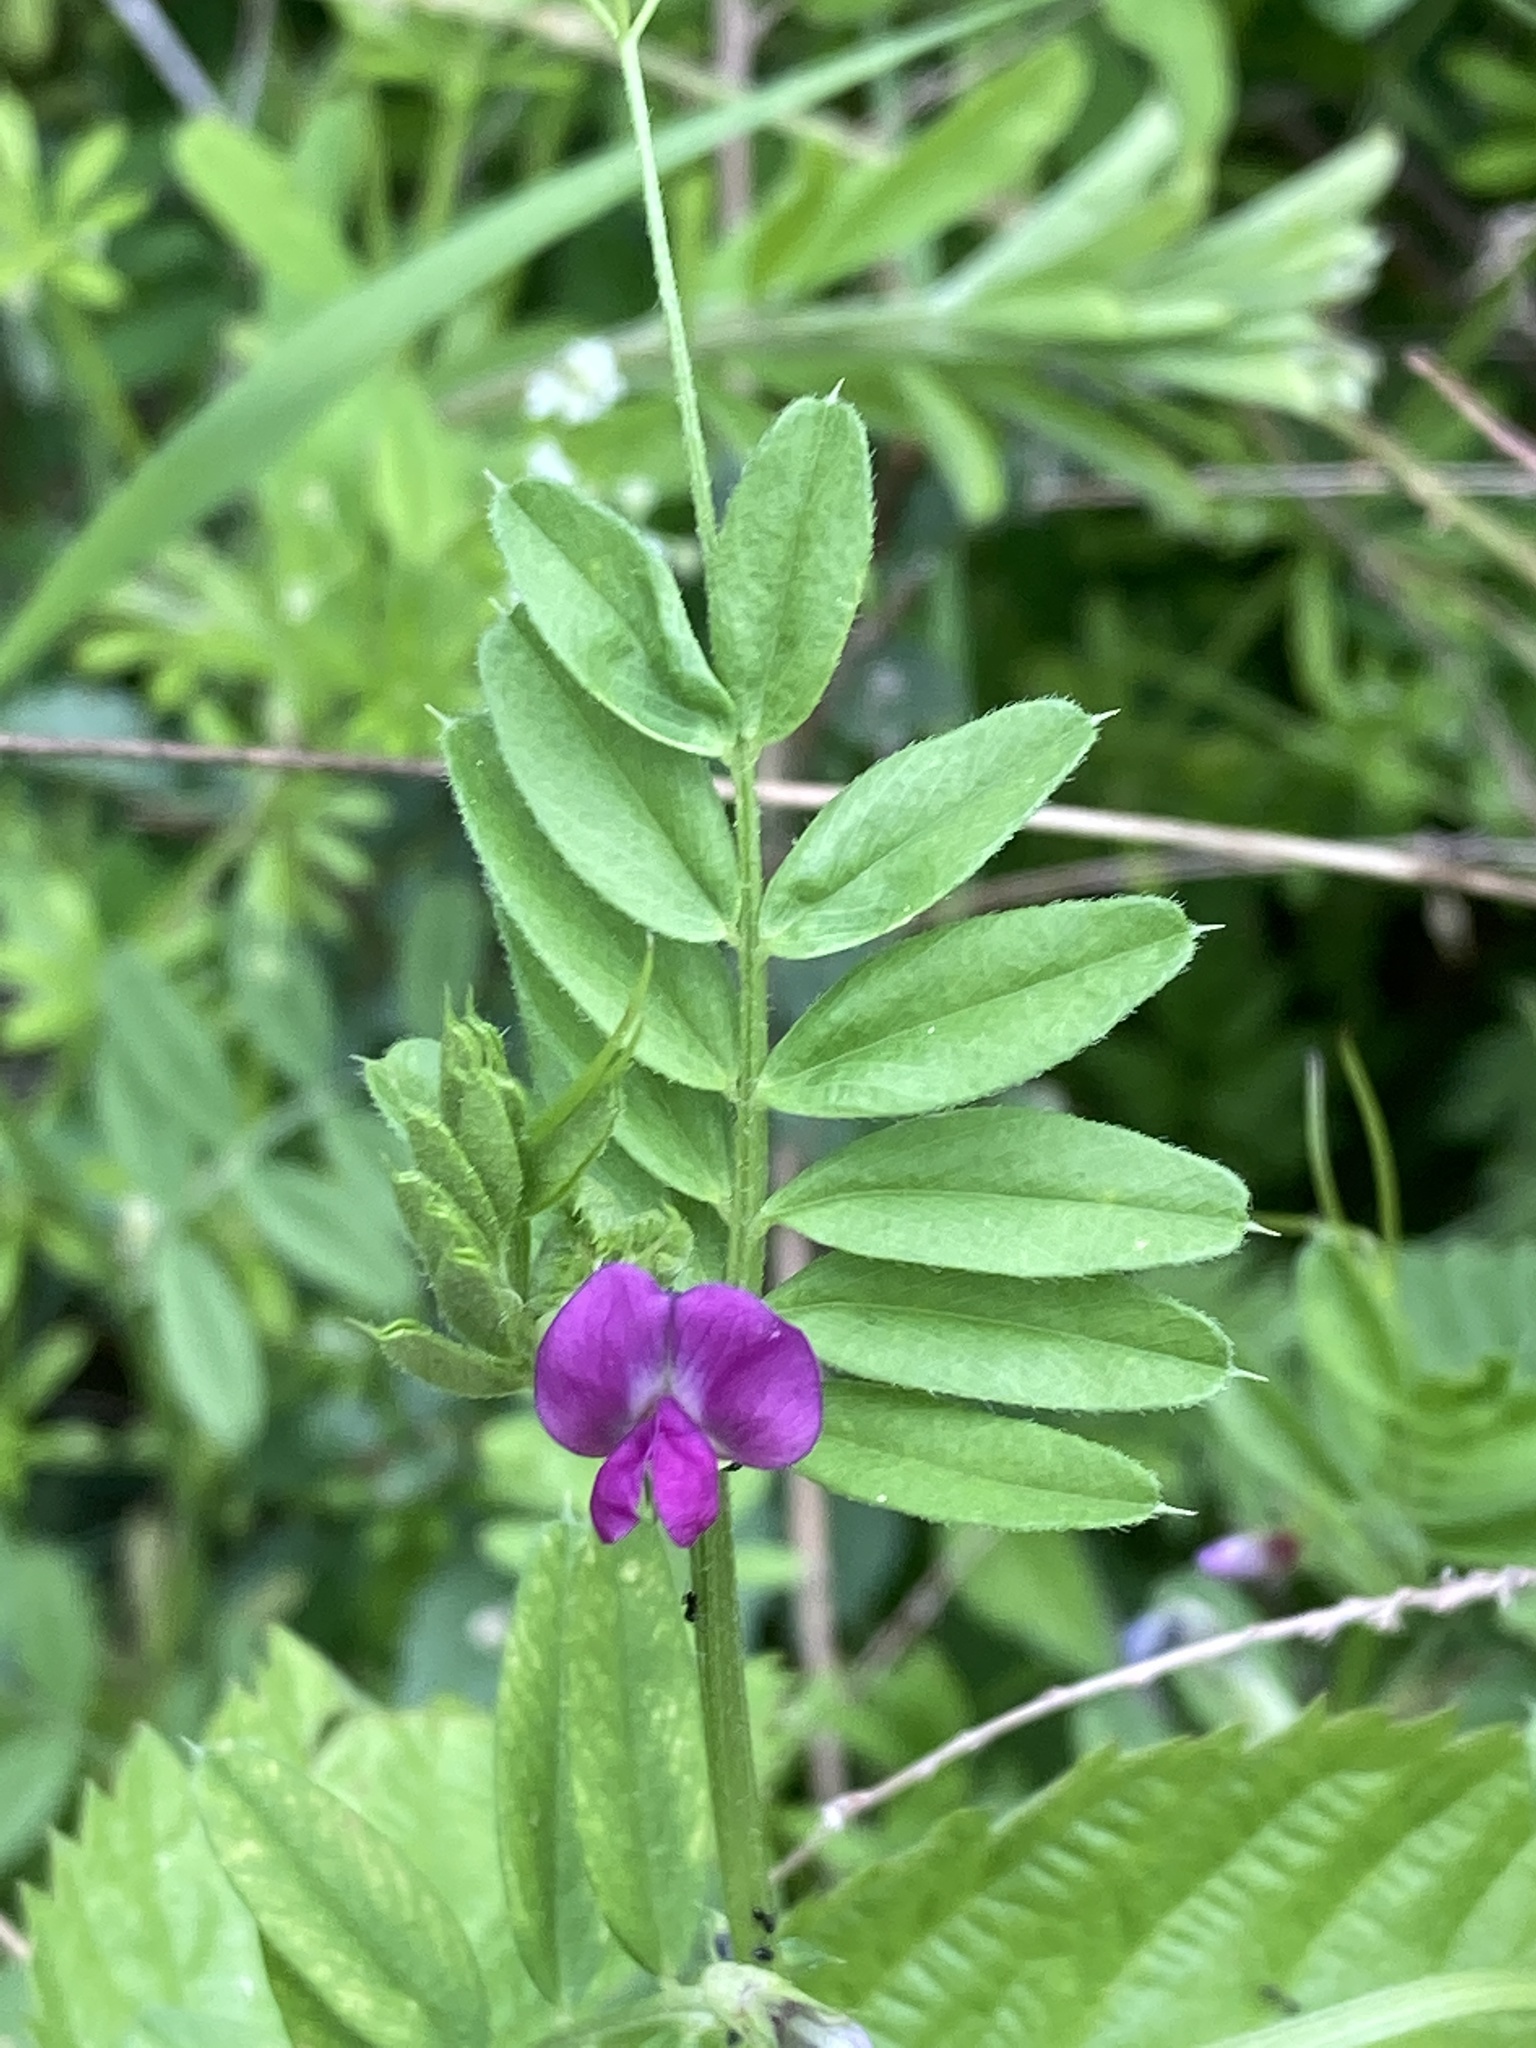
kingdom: Plantae
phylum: Tracheophyta
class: Magnoliopsida
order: Fabales
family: Fabaceae
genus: Vicia
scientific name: Vicia sativa
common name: Garden vetch
